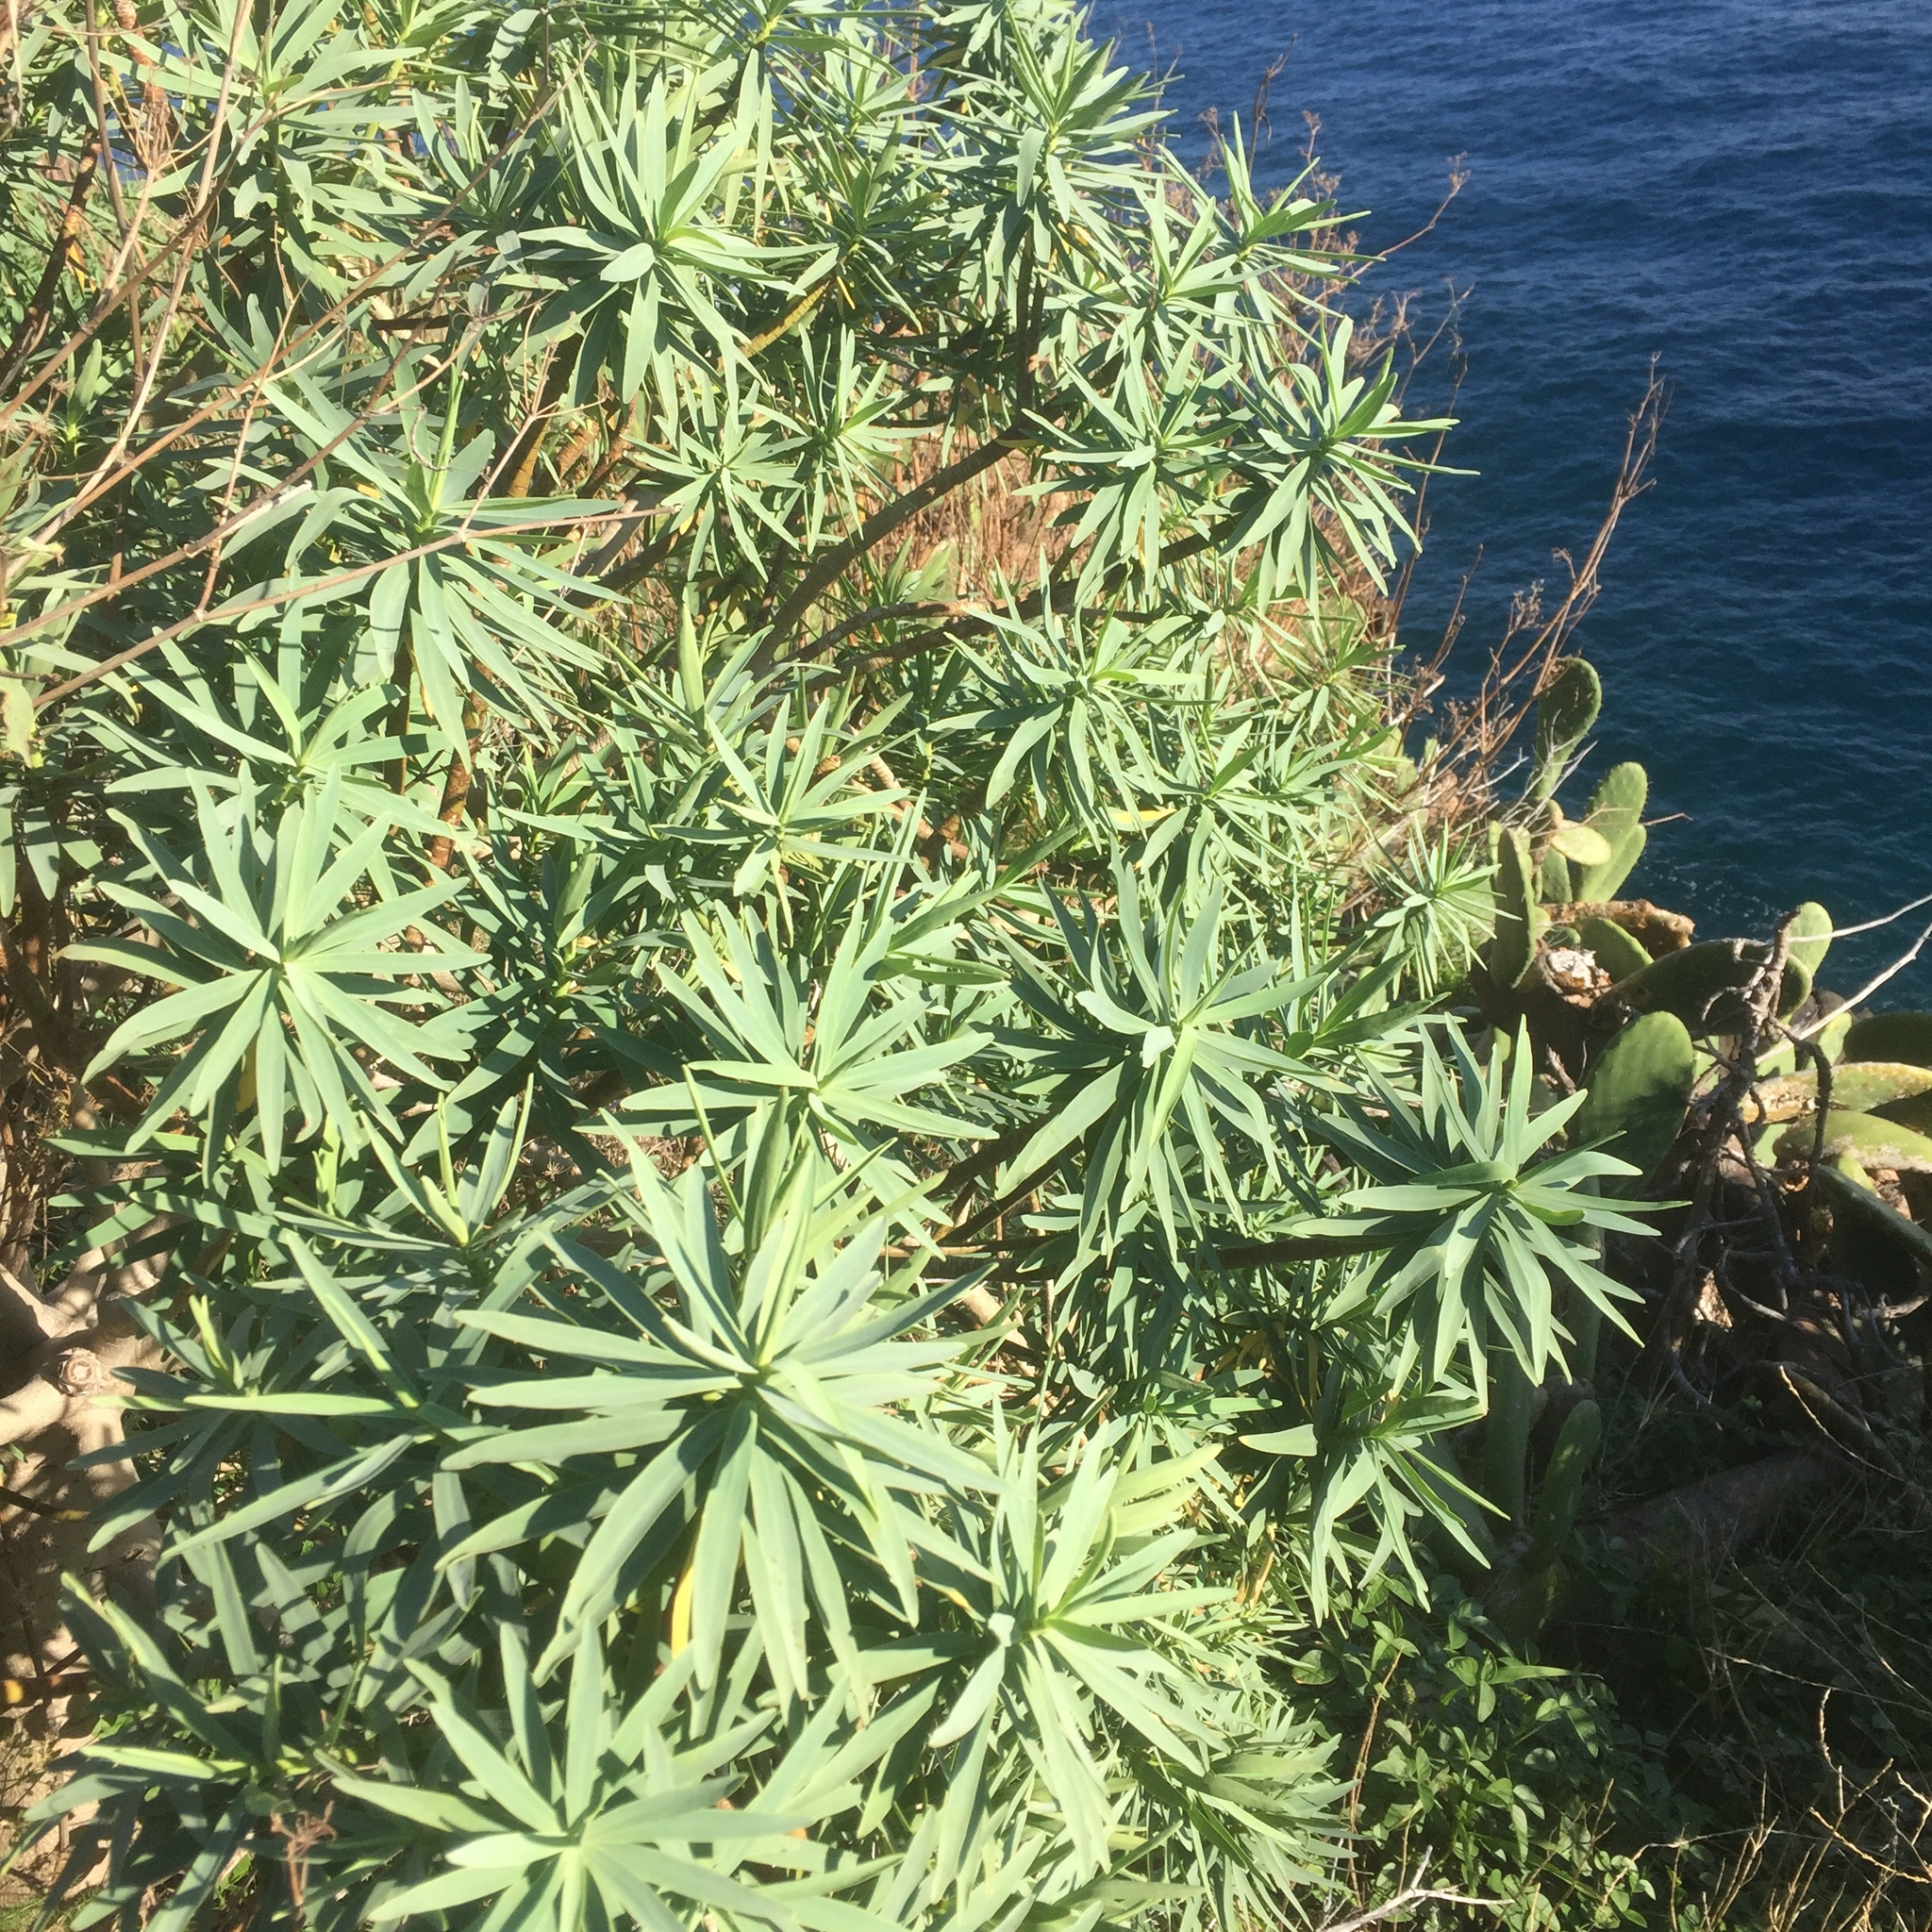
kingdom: Plantae
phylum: Tracheophyta
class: Magnoliopsida
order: Malpighiales
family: Euphorbiaceae
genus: Euphorbia
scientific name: Euphorbia piscatoria
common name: Fish-stunning spurge
